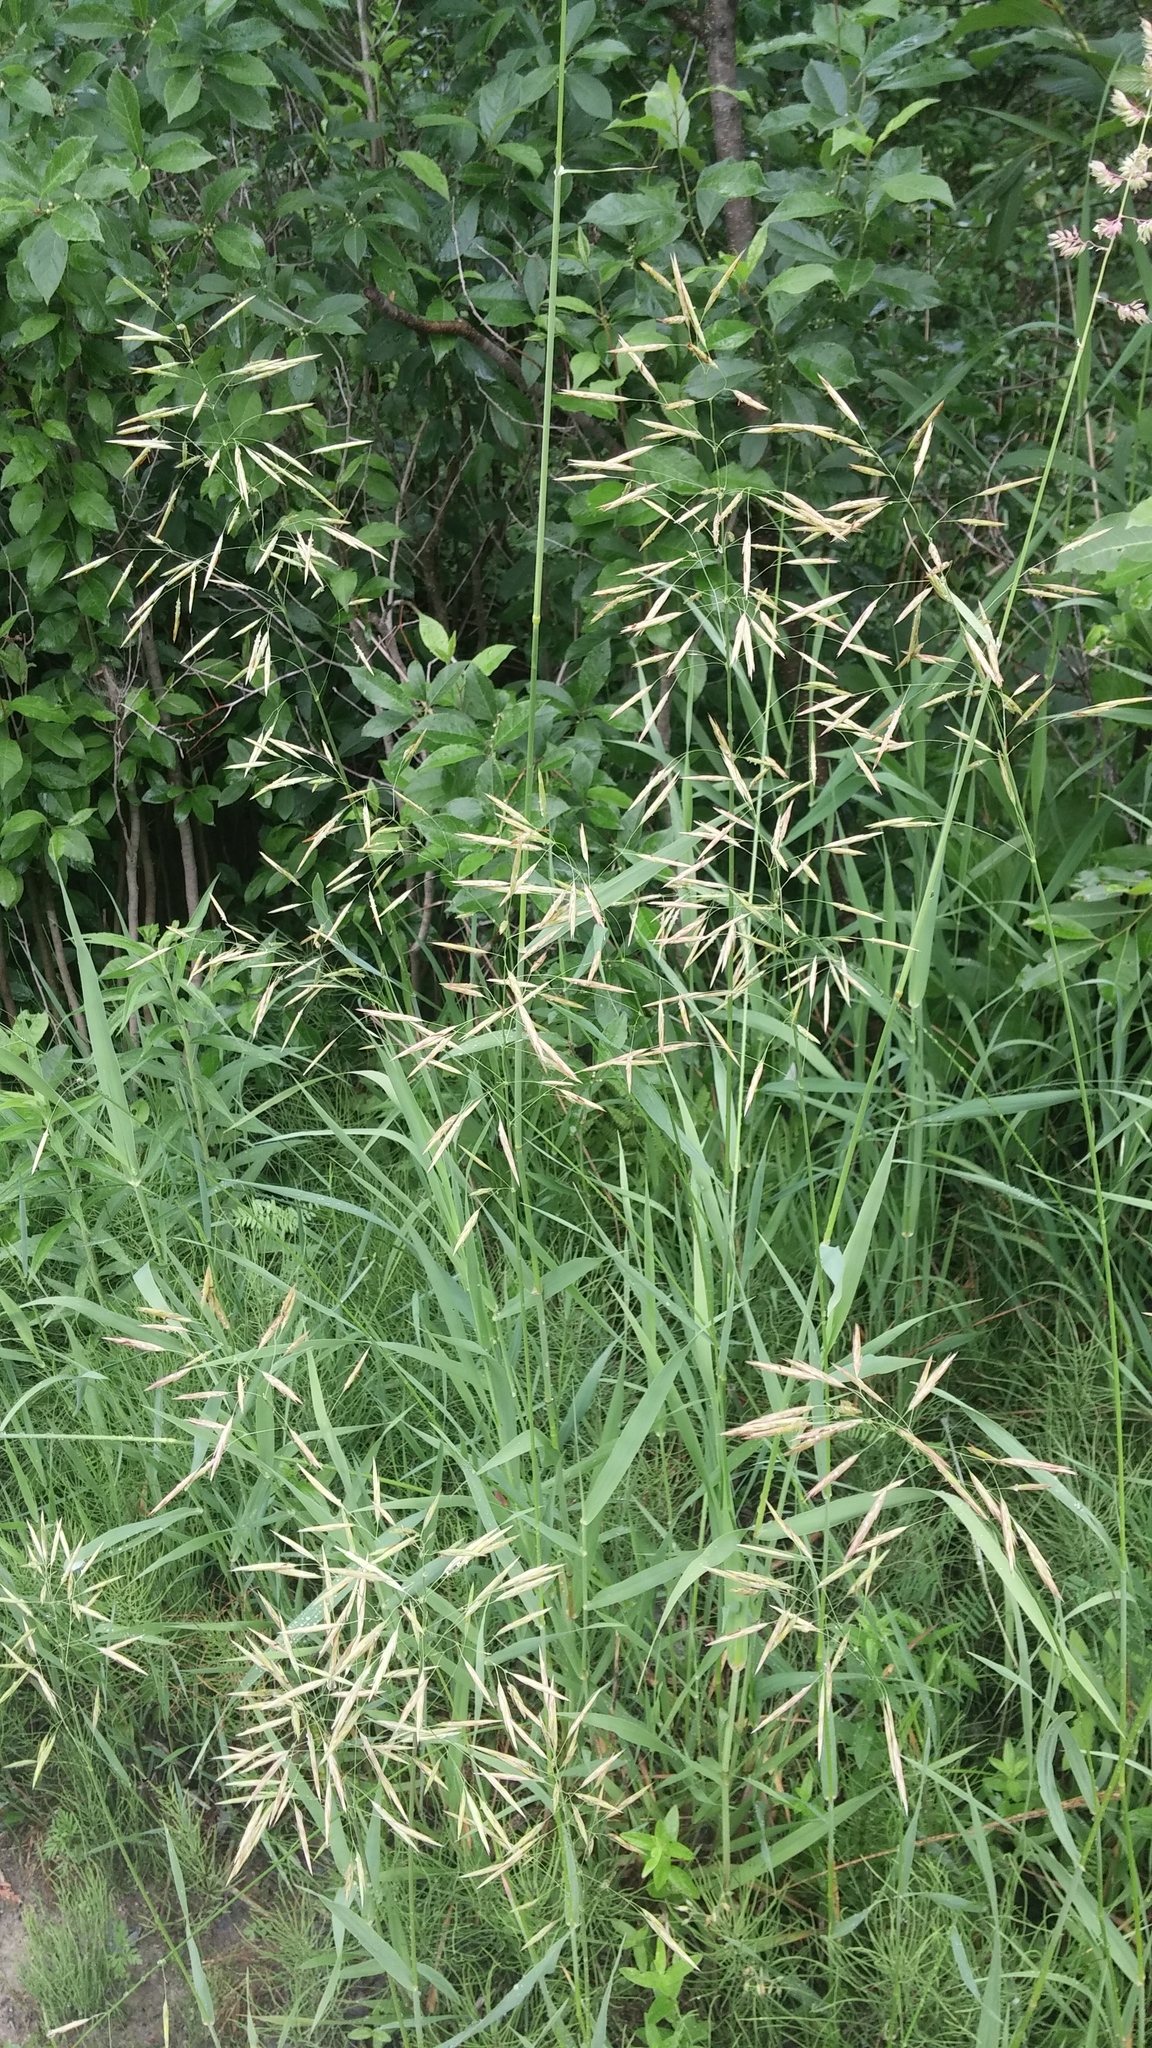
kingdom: Plantae
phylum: Tracheophyta
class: Liliopsida
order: Poales
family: Poaceae
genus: Bromus
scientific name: Bromus inermis
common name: Smooth brome
